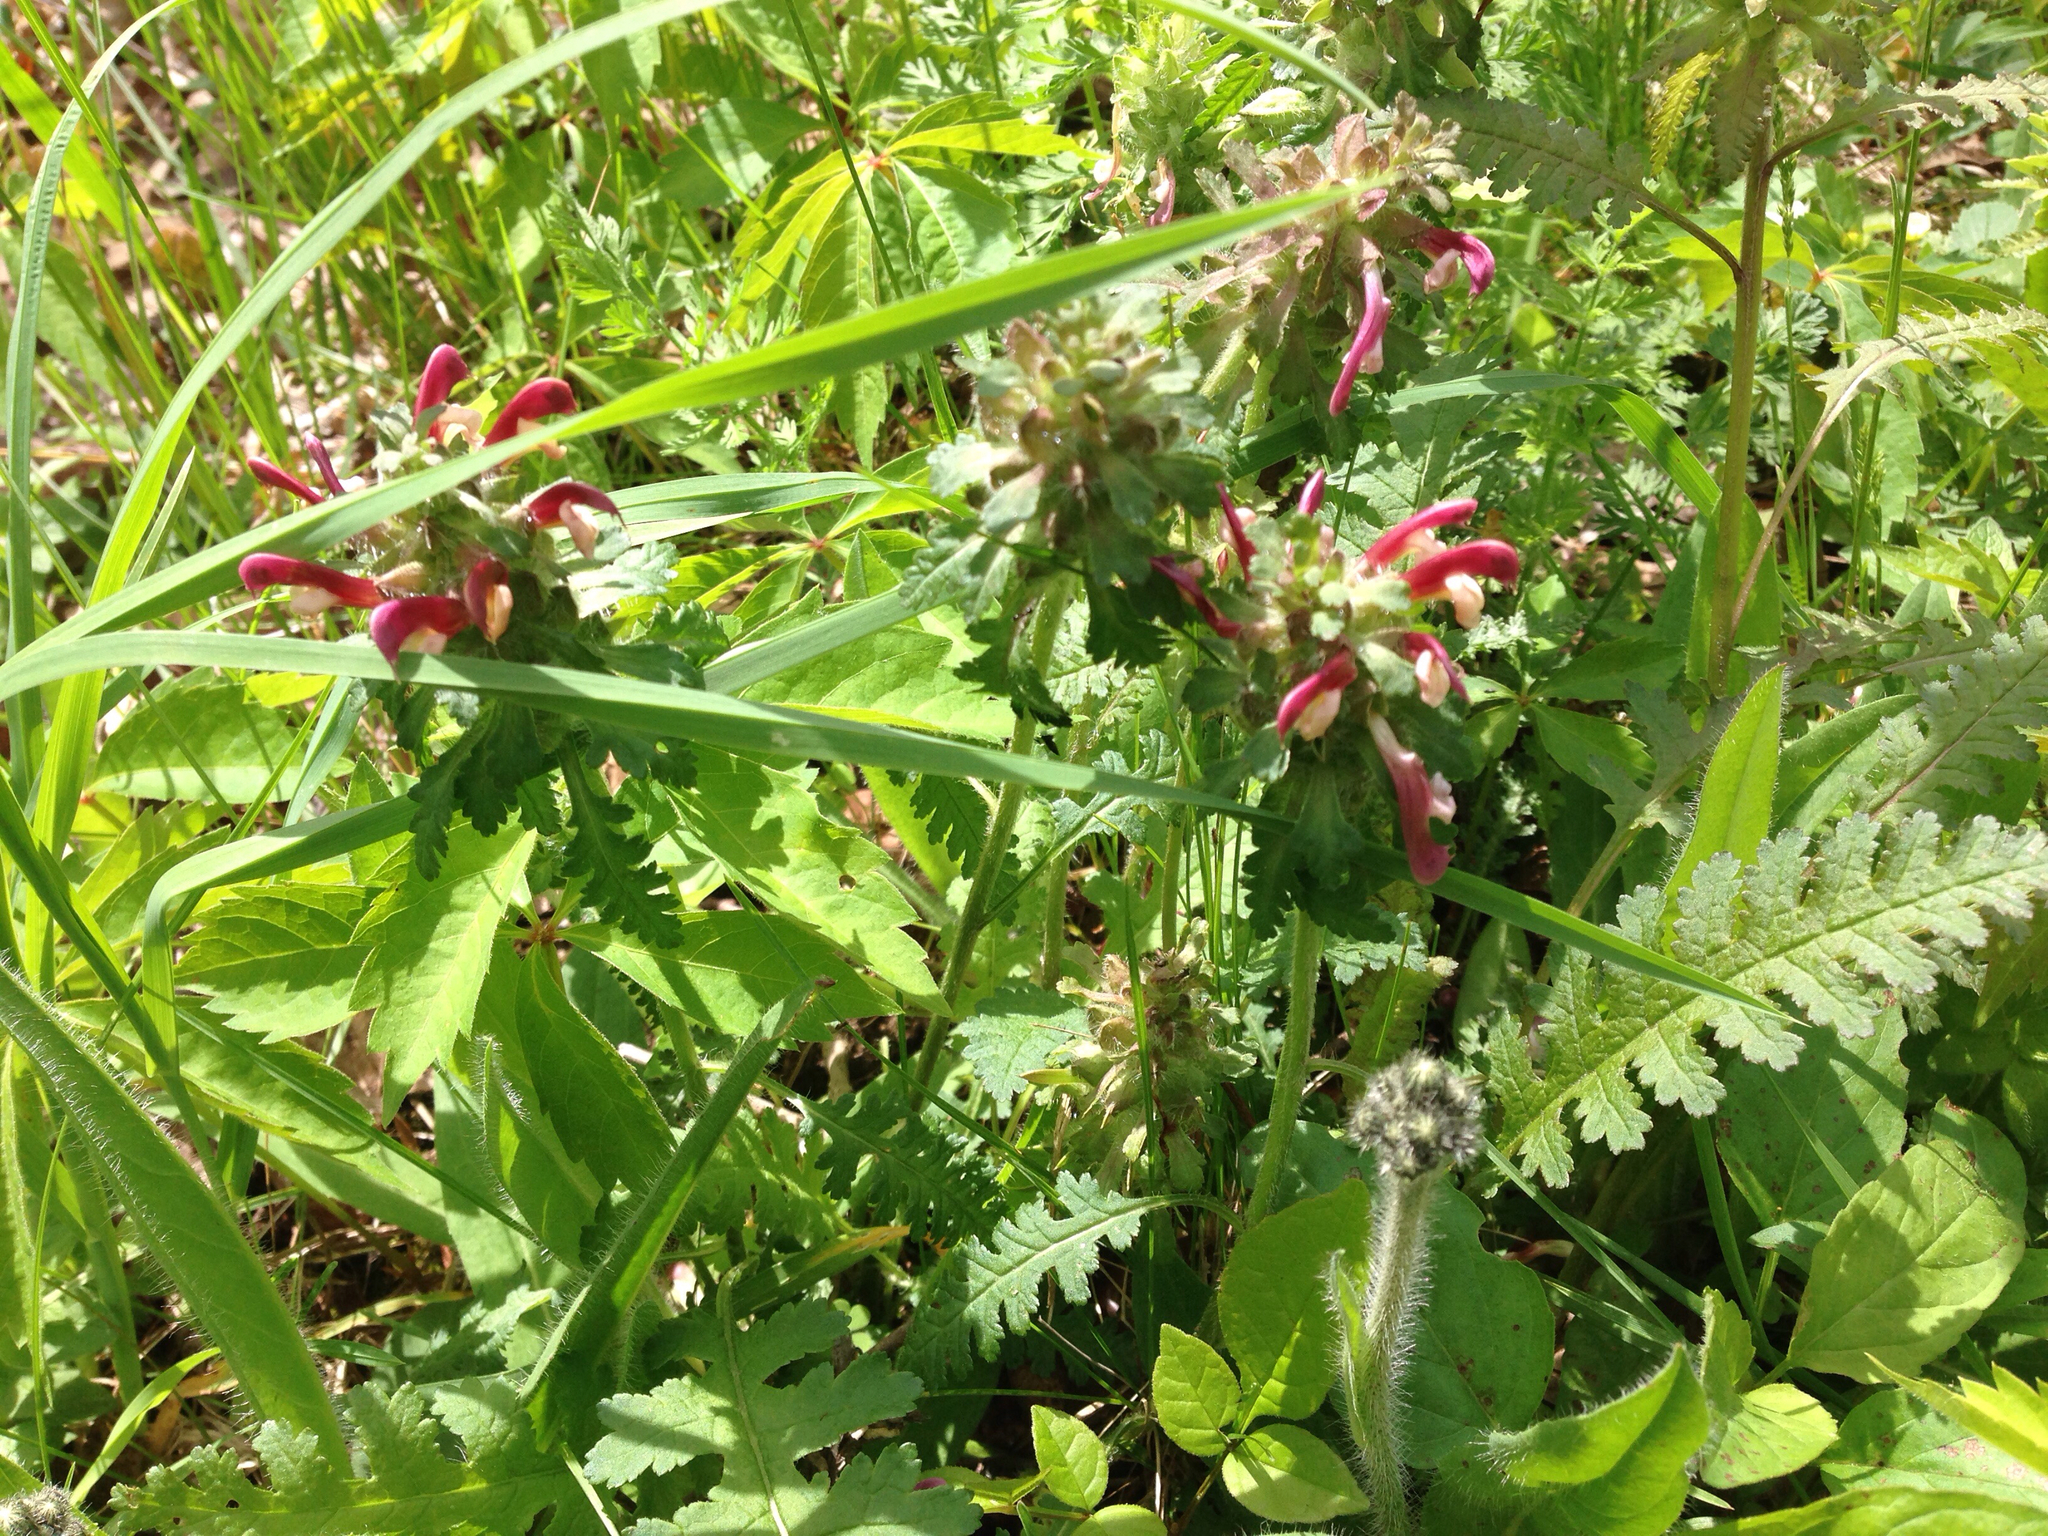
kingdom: Plantae
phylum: Tracheophyta
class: Magnoliopsida
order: Lamiales
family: Orobanchaceae
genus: Pedicularis
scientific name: Pedicularis canadensis
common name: Early lousewort
